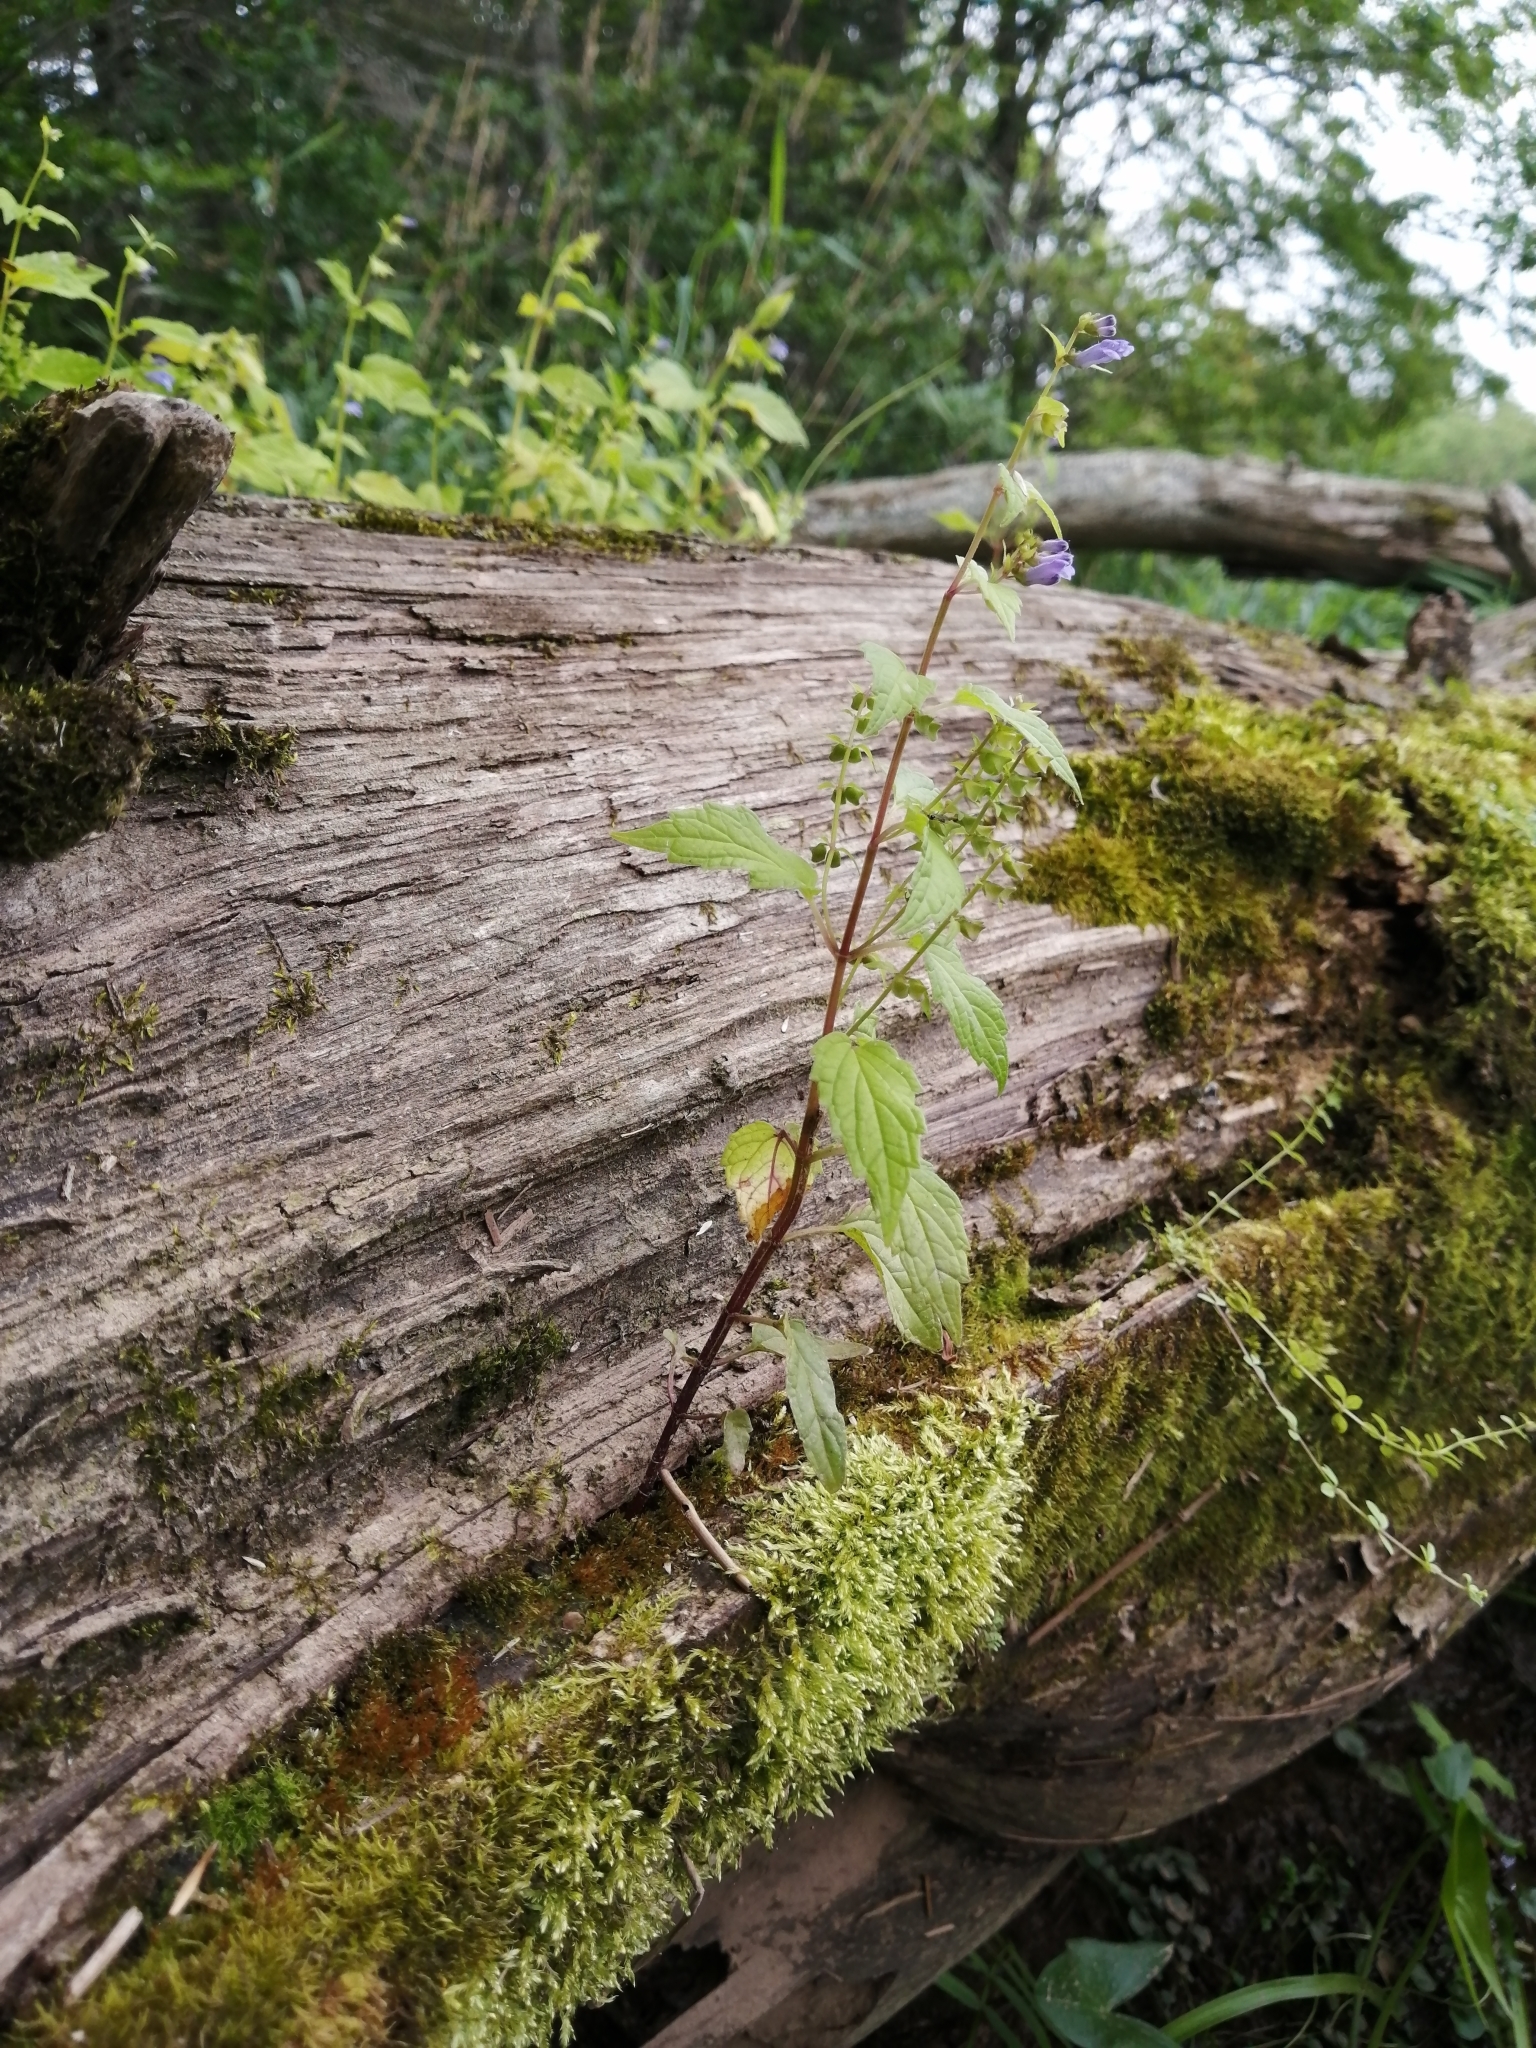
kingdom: Plantae
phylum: Tracheophyta
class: Magnoliopsida
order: Lamiales
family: Lamiaceae
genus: Scutellaria
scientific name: Scutellaria lateriflora
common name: Blue skullcap
